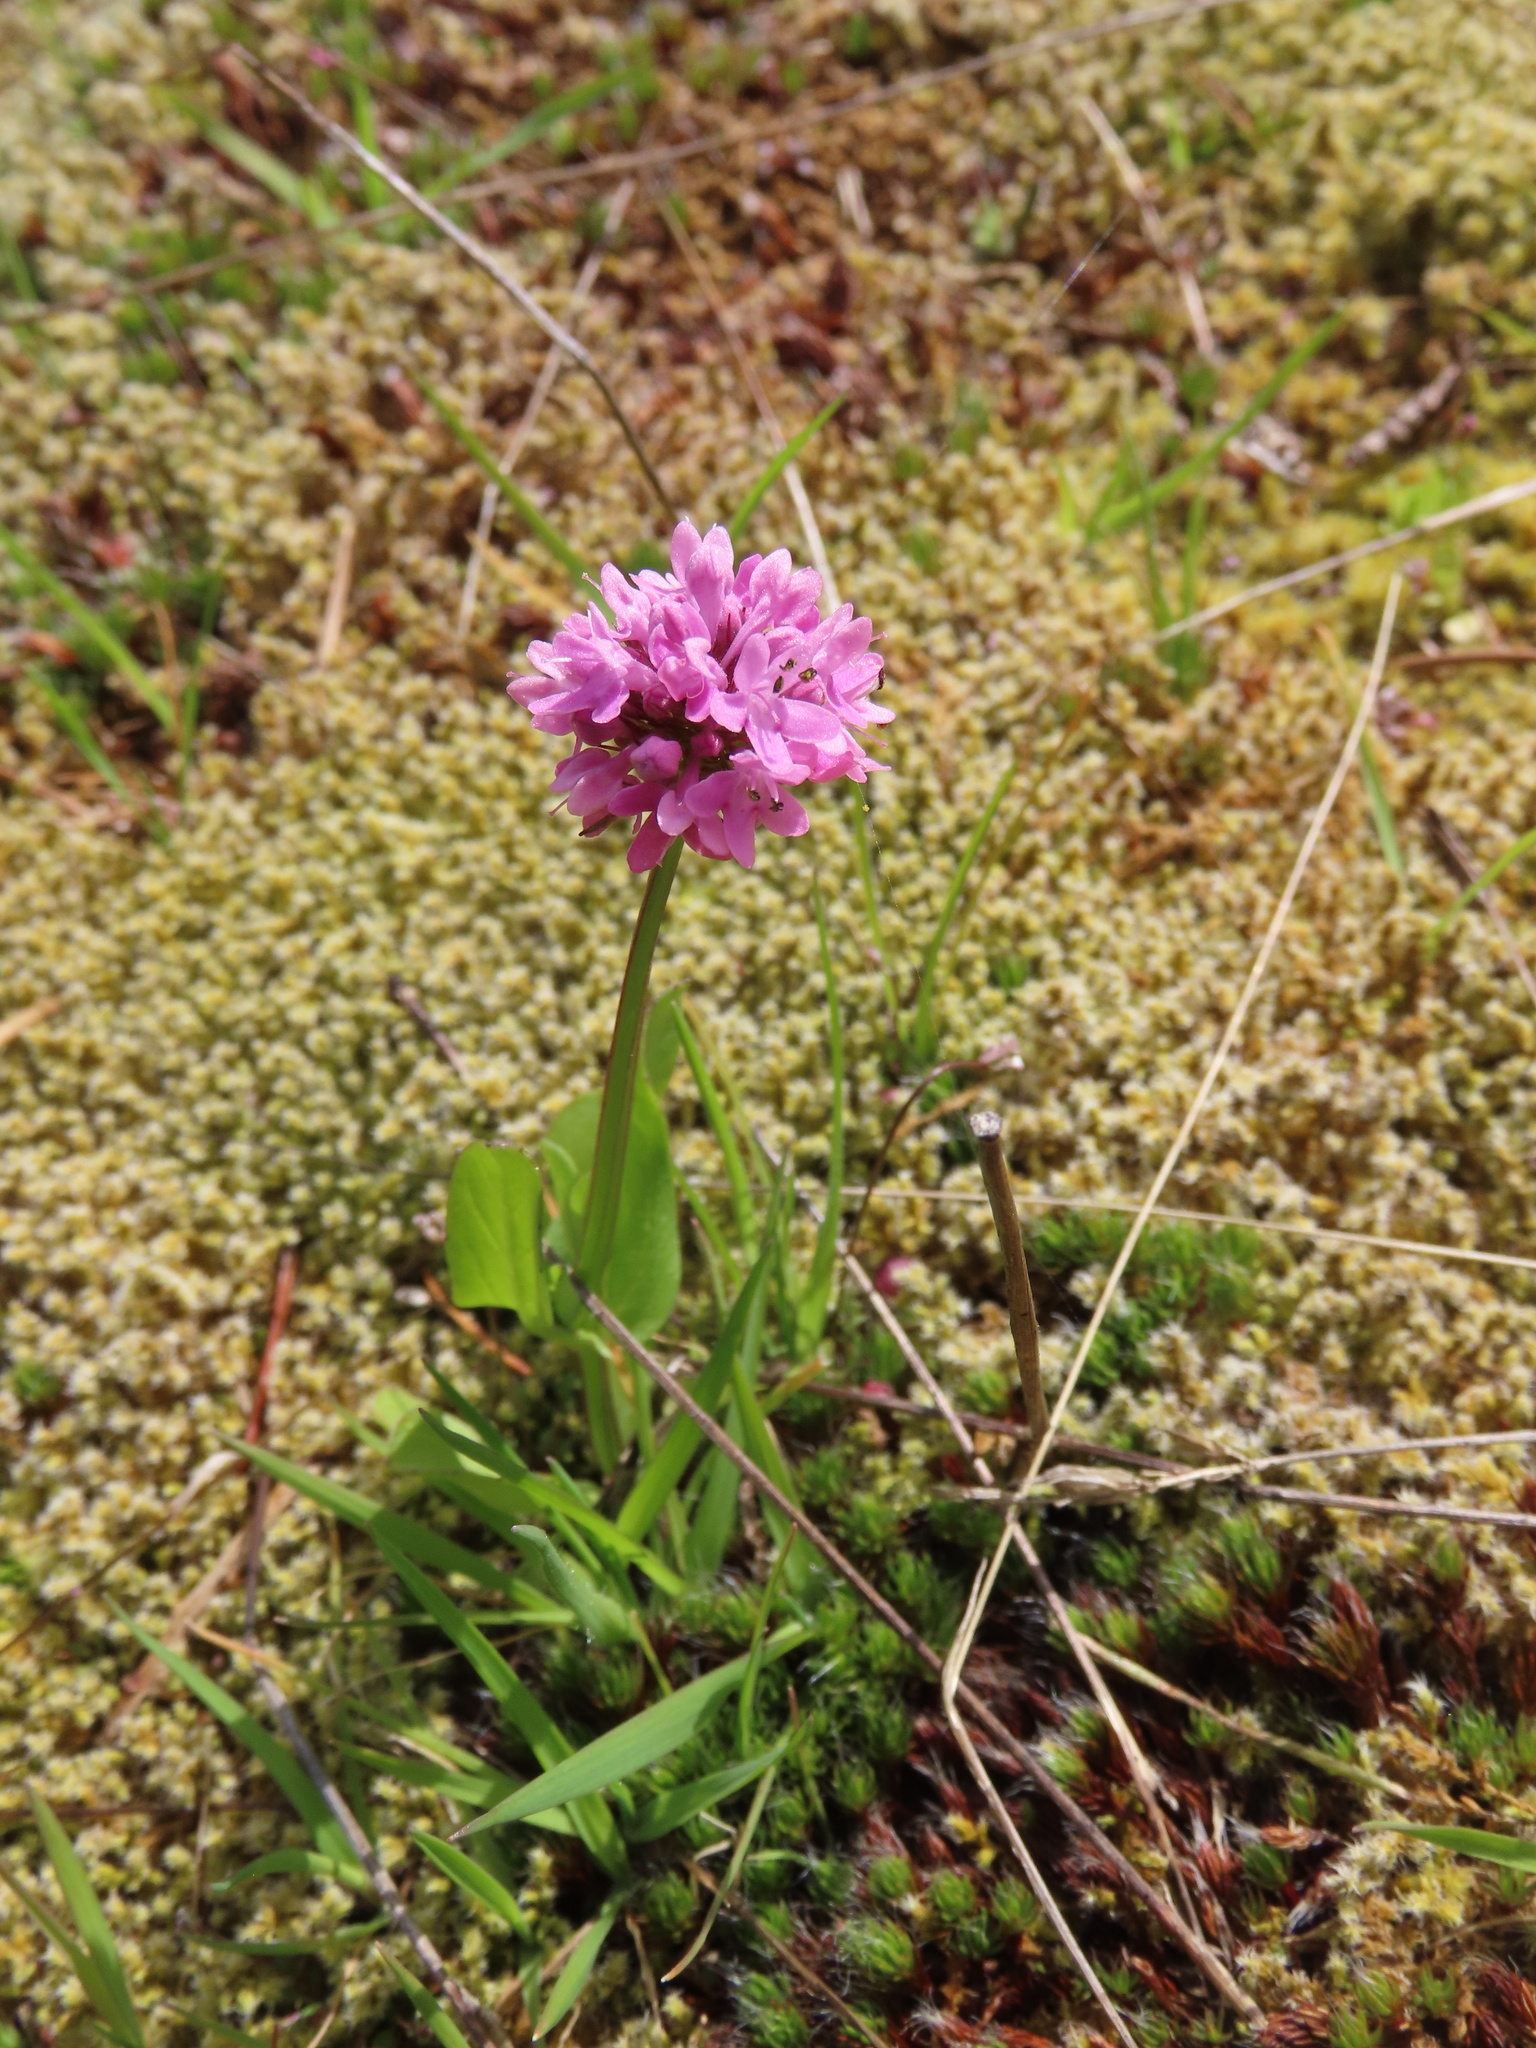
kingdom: Plantae
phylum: Tracheophyta
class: Magnoliopsida
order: Dipsacales
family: Caprifoliaceae
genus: Plectritis
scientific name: Plectritis congesta
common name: Pink plectritis
